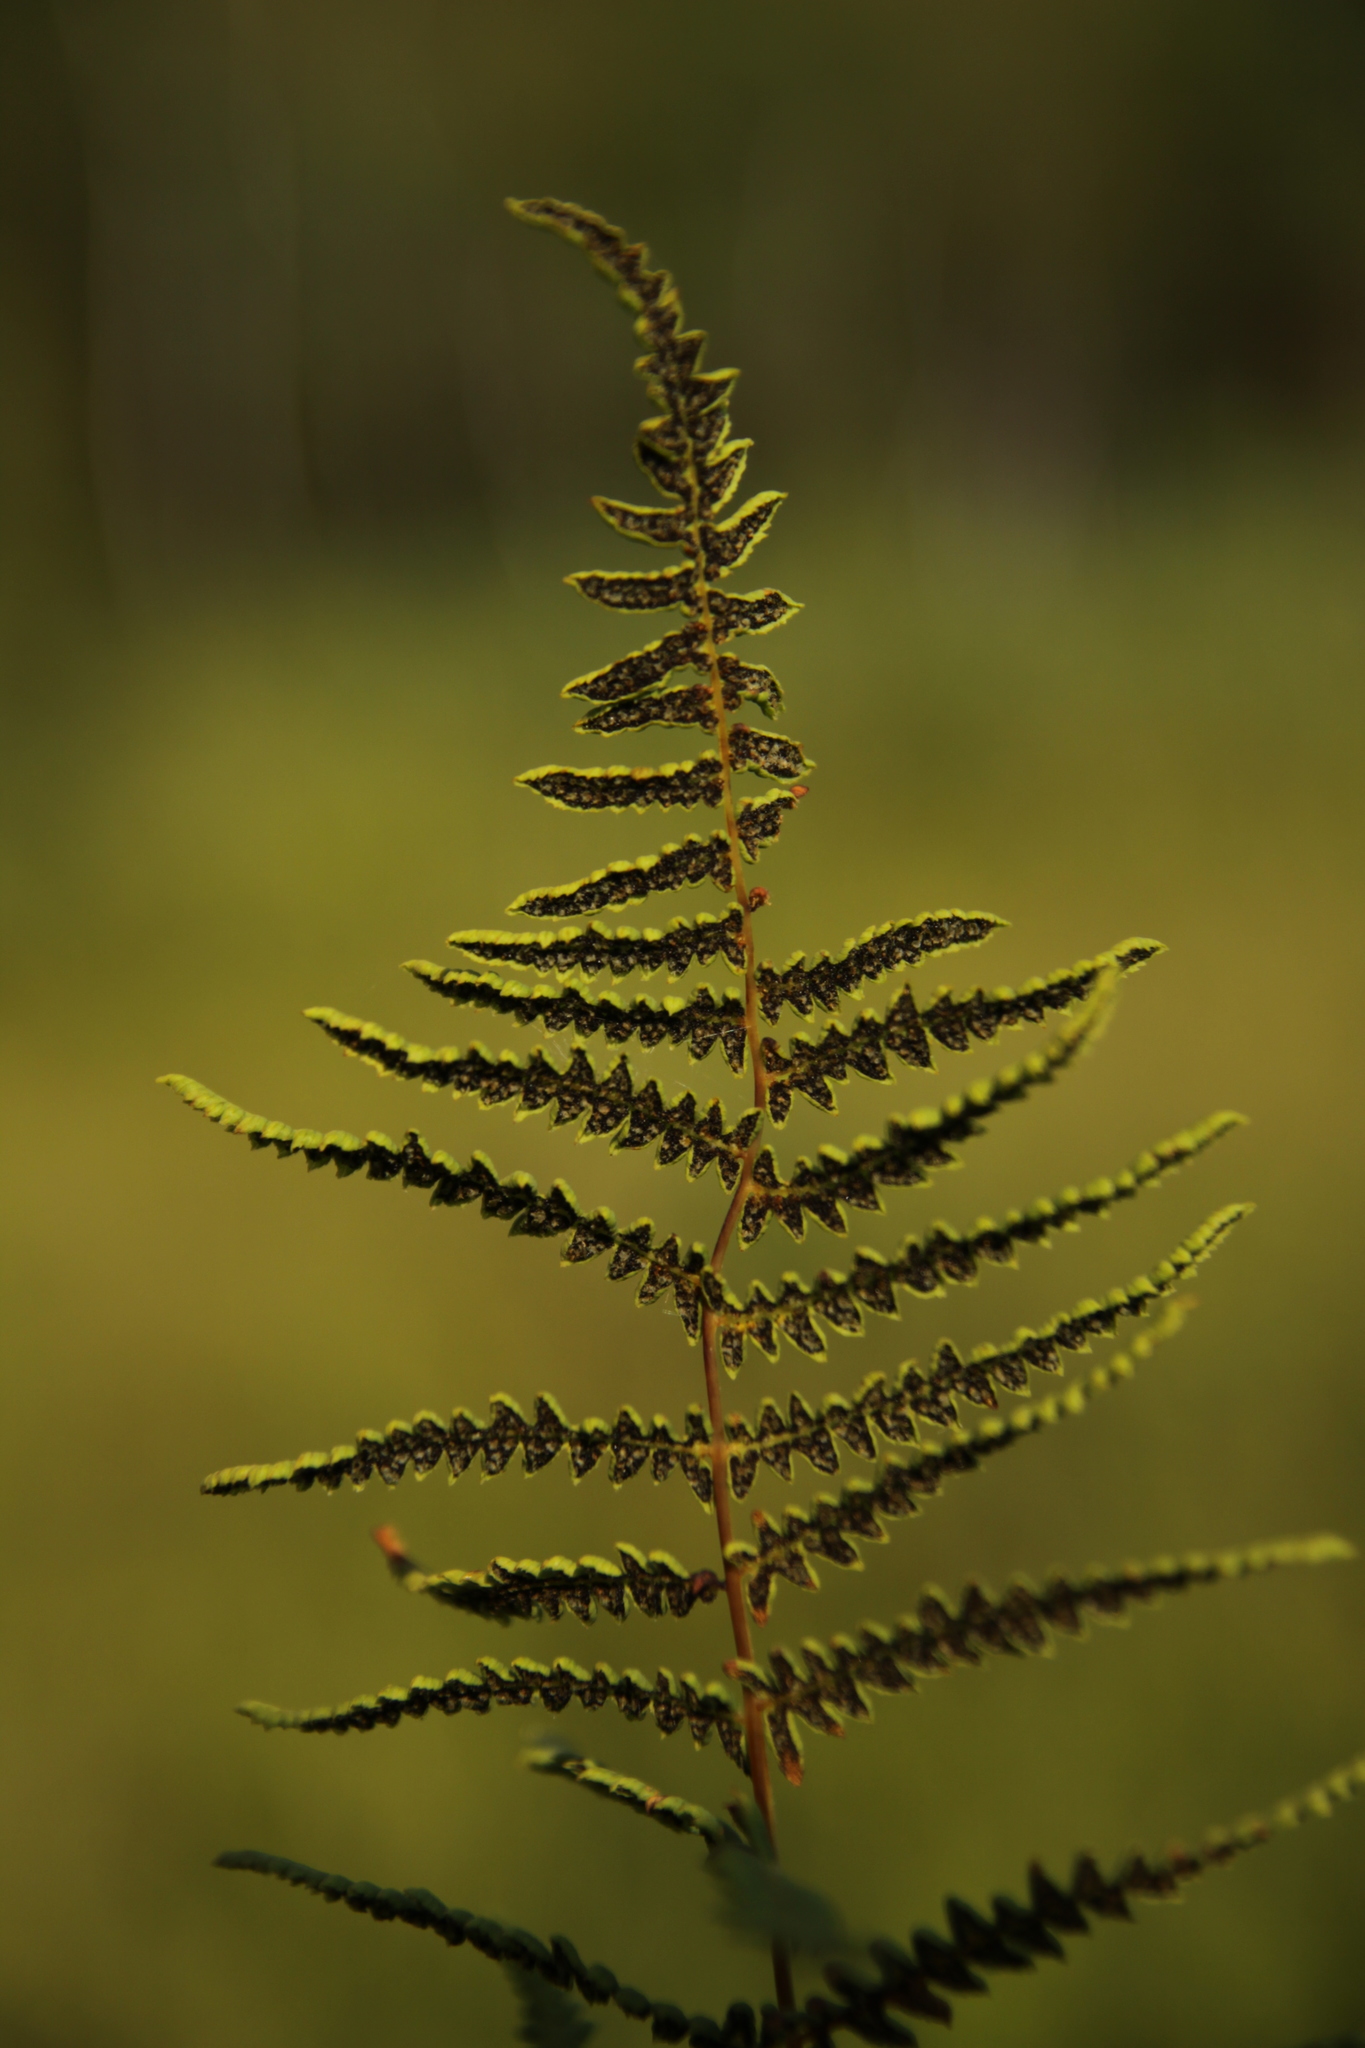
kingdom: Plantae
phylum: Tracheophyta
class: Polypodiopsida
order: Polypodiales
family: Thelypteridaceae
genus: Thelypteris
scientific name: Thelypteris palustris
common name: Marsh fern
